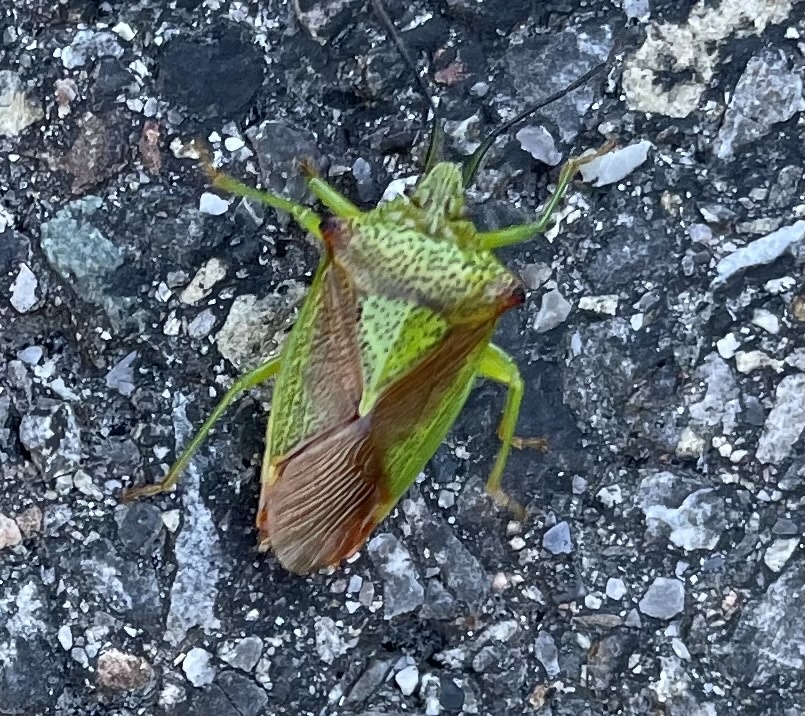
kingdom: Animalia
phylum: Arthropoda
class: Insecta
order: Hemiptera
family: Acanthosomatidae
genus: Acanthosoma
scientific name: Acanthosoma haemorrhoidale
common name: Hawthorn shieldbug
